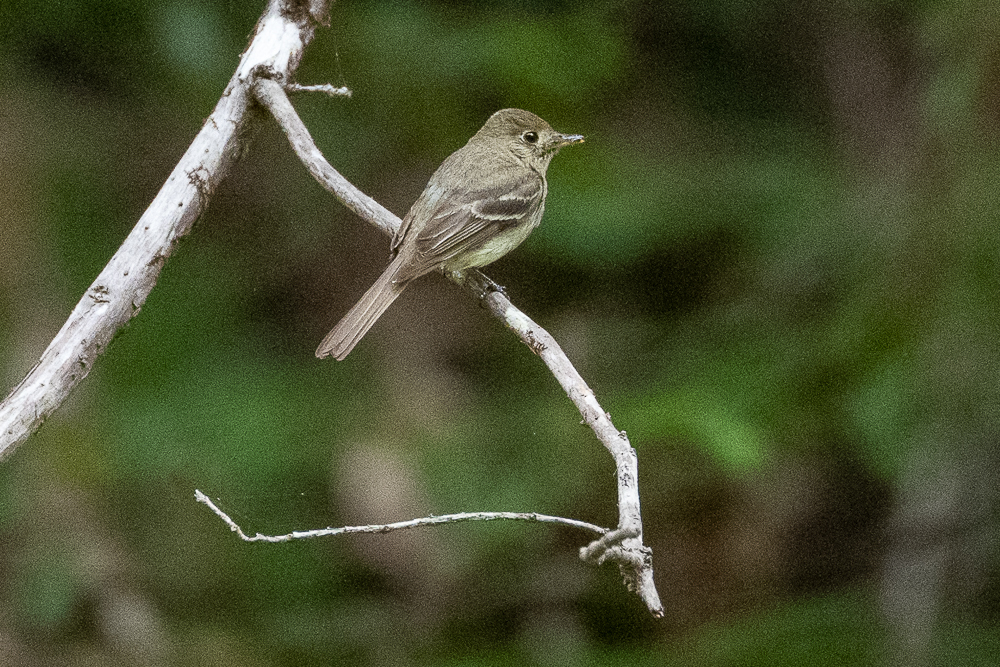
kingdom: Animalia
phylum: Chordata
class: Aves
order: Passeriformes
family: Tyrannidae
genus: Empidonax
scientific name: Empidonax difficilis
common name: Pacific-slope flycatcher
